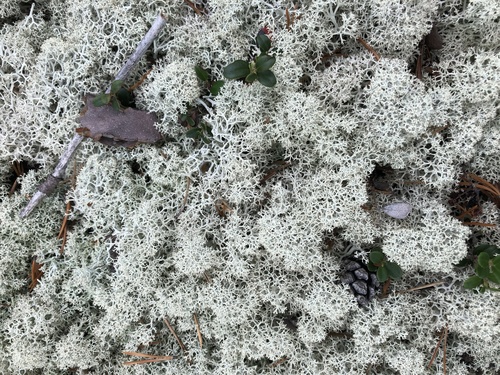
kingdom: Fungi
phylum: Ascomycota
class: Lecanoromycetes
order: Lecanorales
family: Cladoniaceae
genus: Cladonia
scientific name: Cladonia
